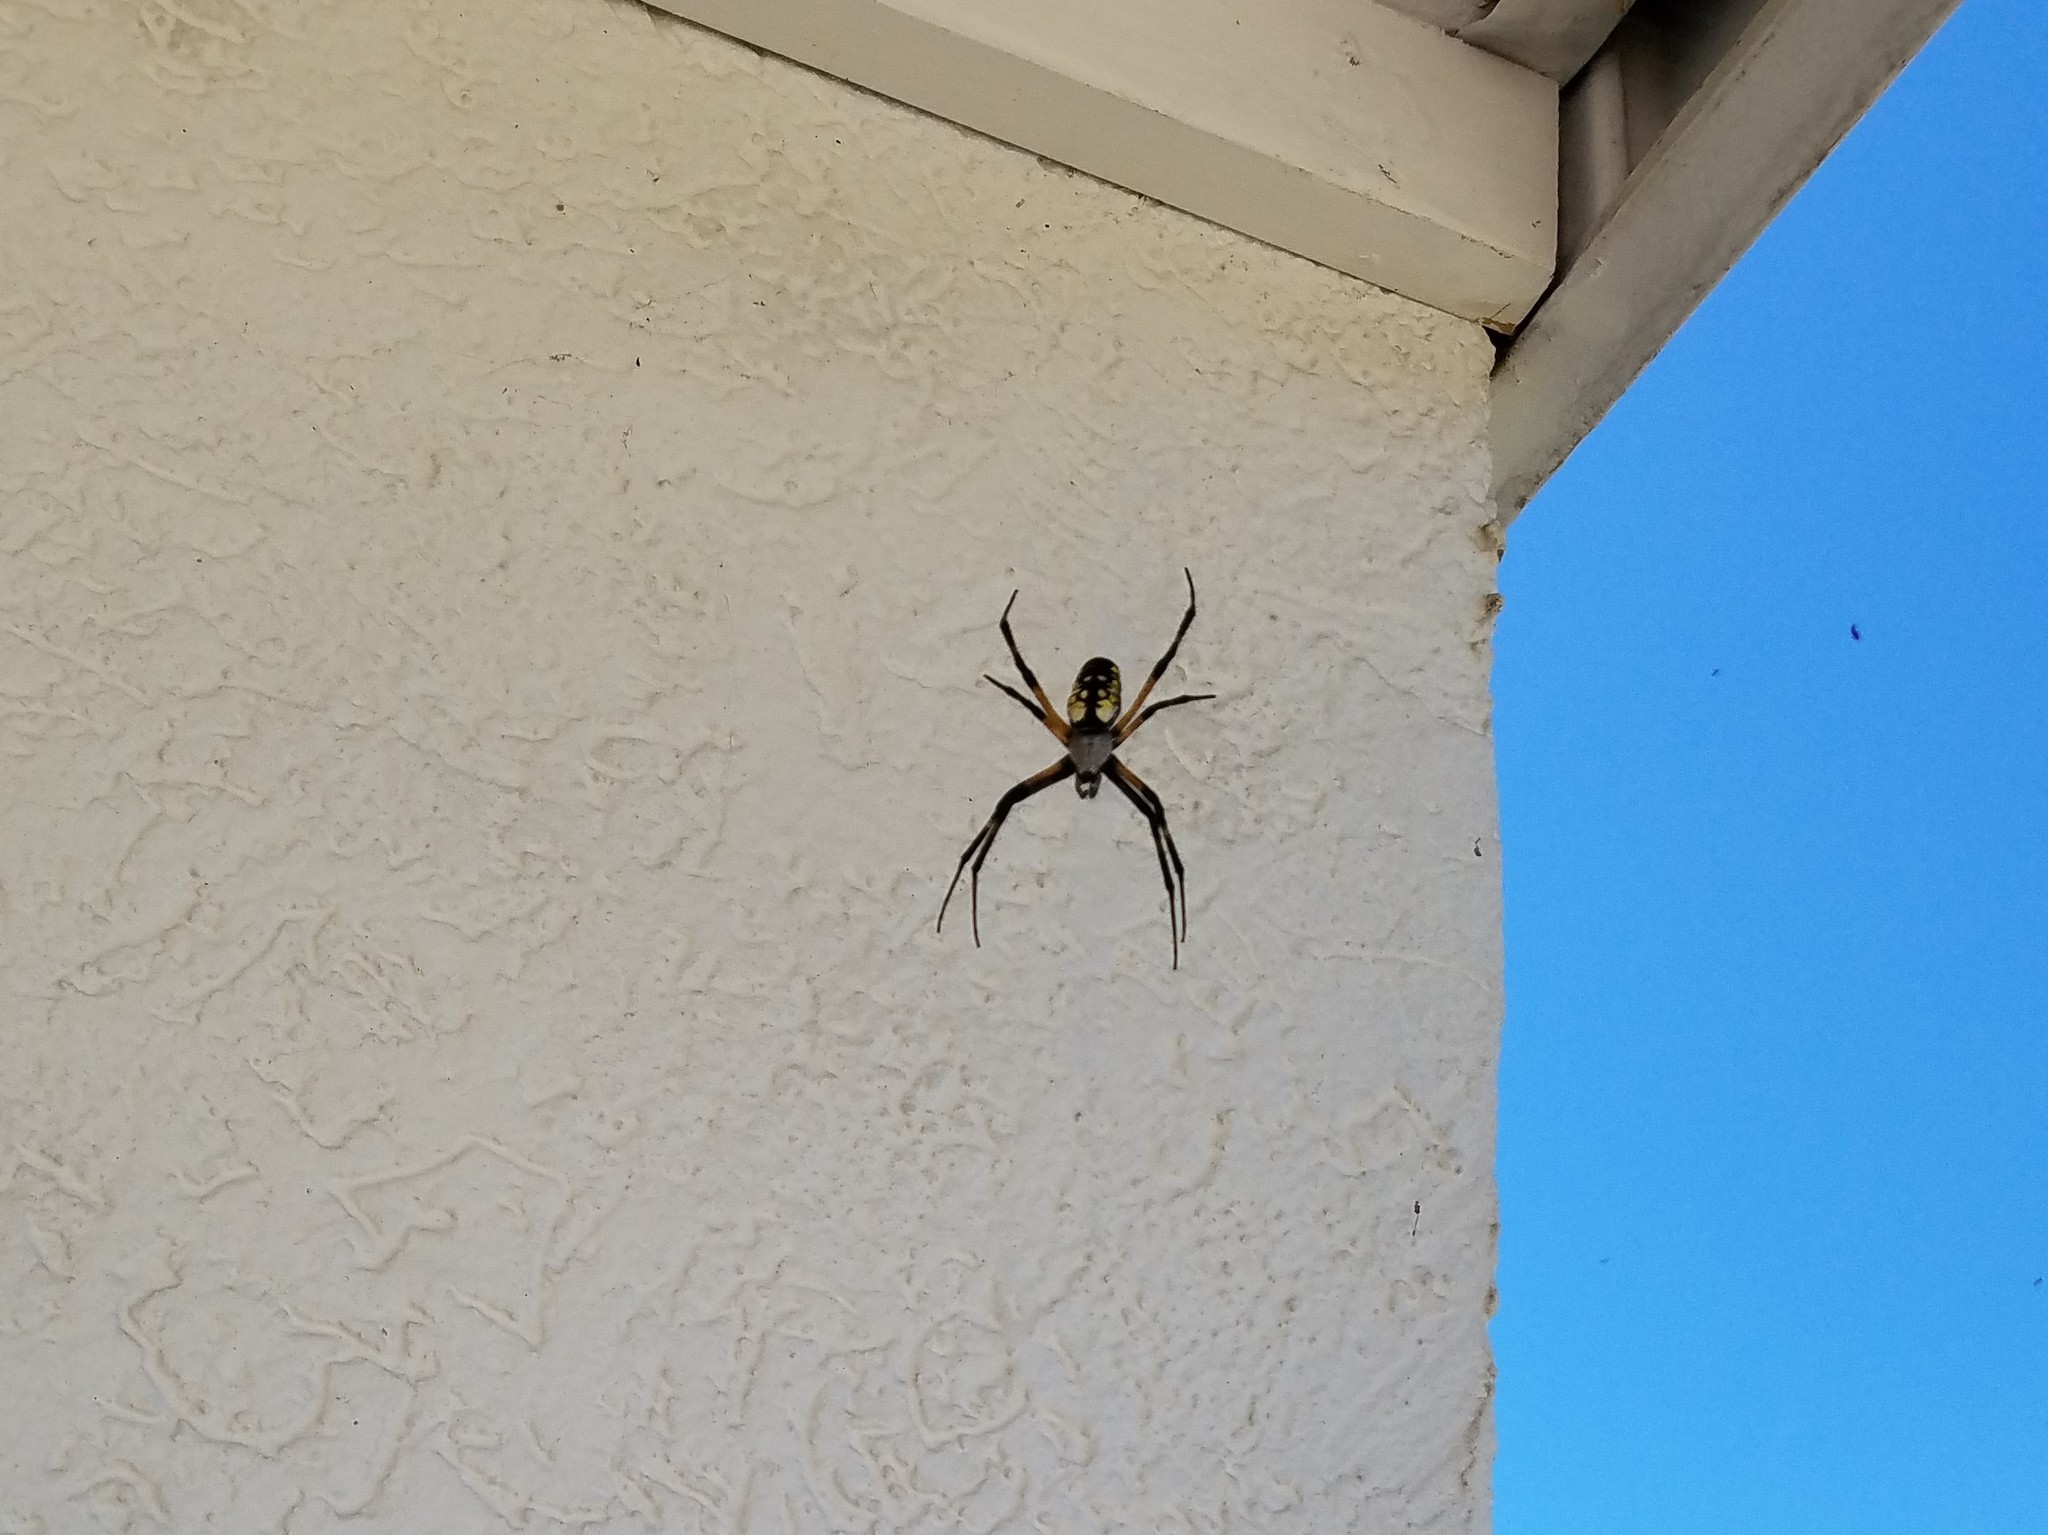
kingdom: Animalia
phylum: Arthropoda
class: Arachnida
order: Araneae
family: Araneidae
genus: Argiope
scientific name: Argiope aurantia
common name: Orb weavers
